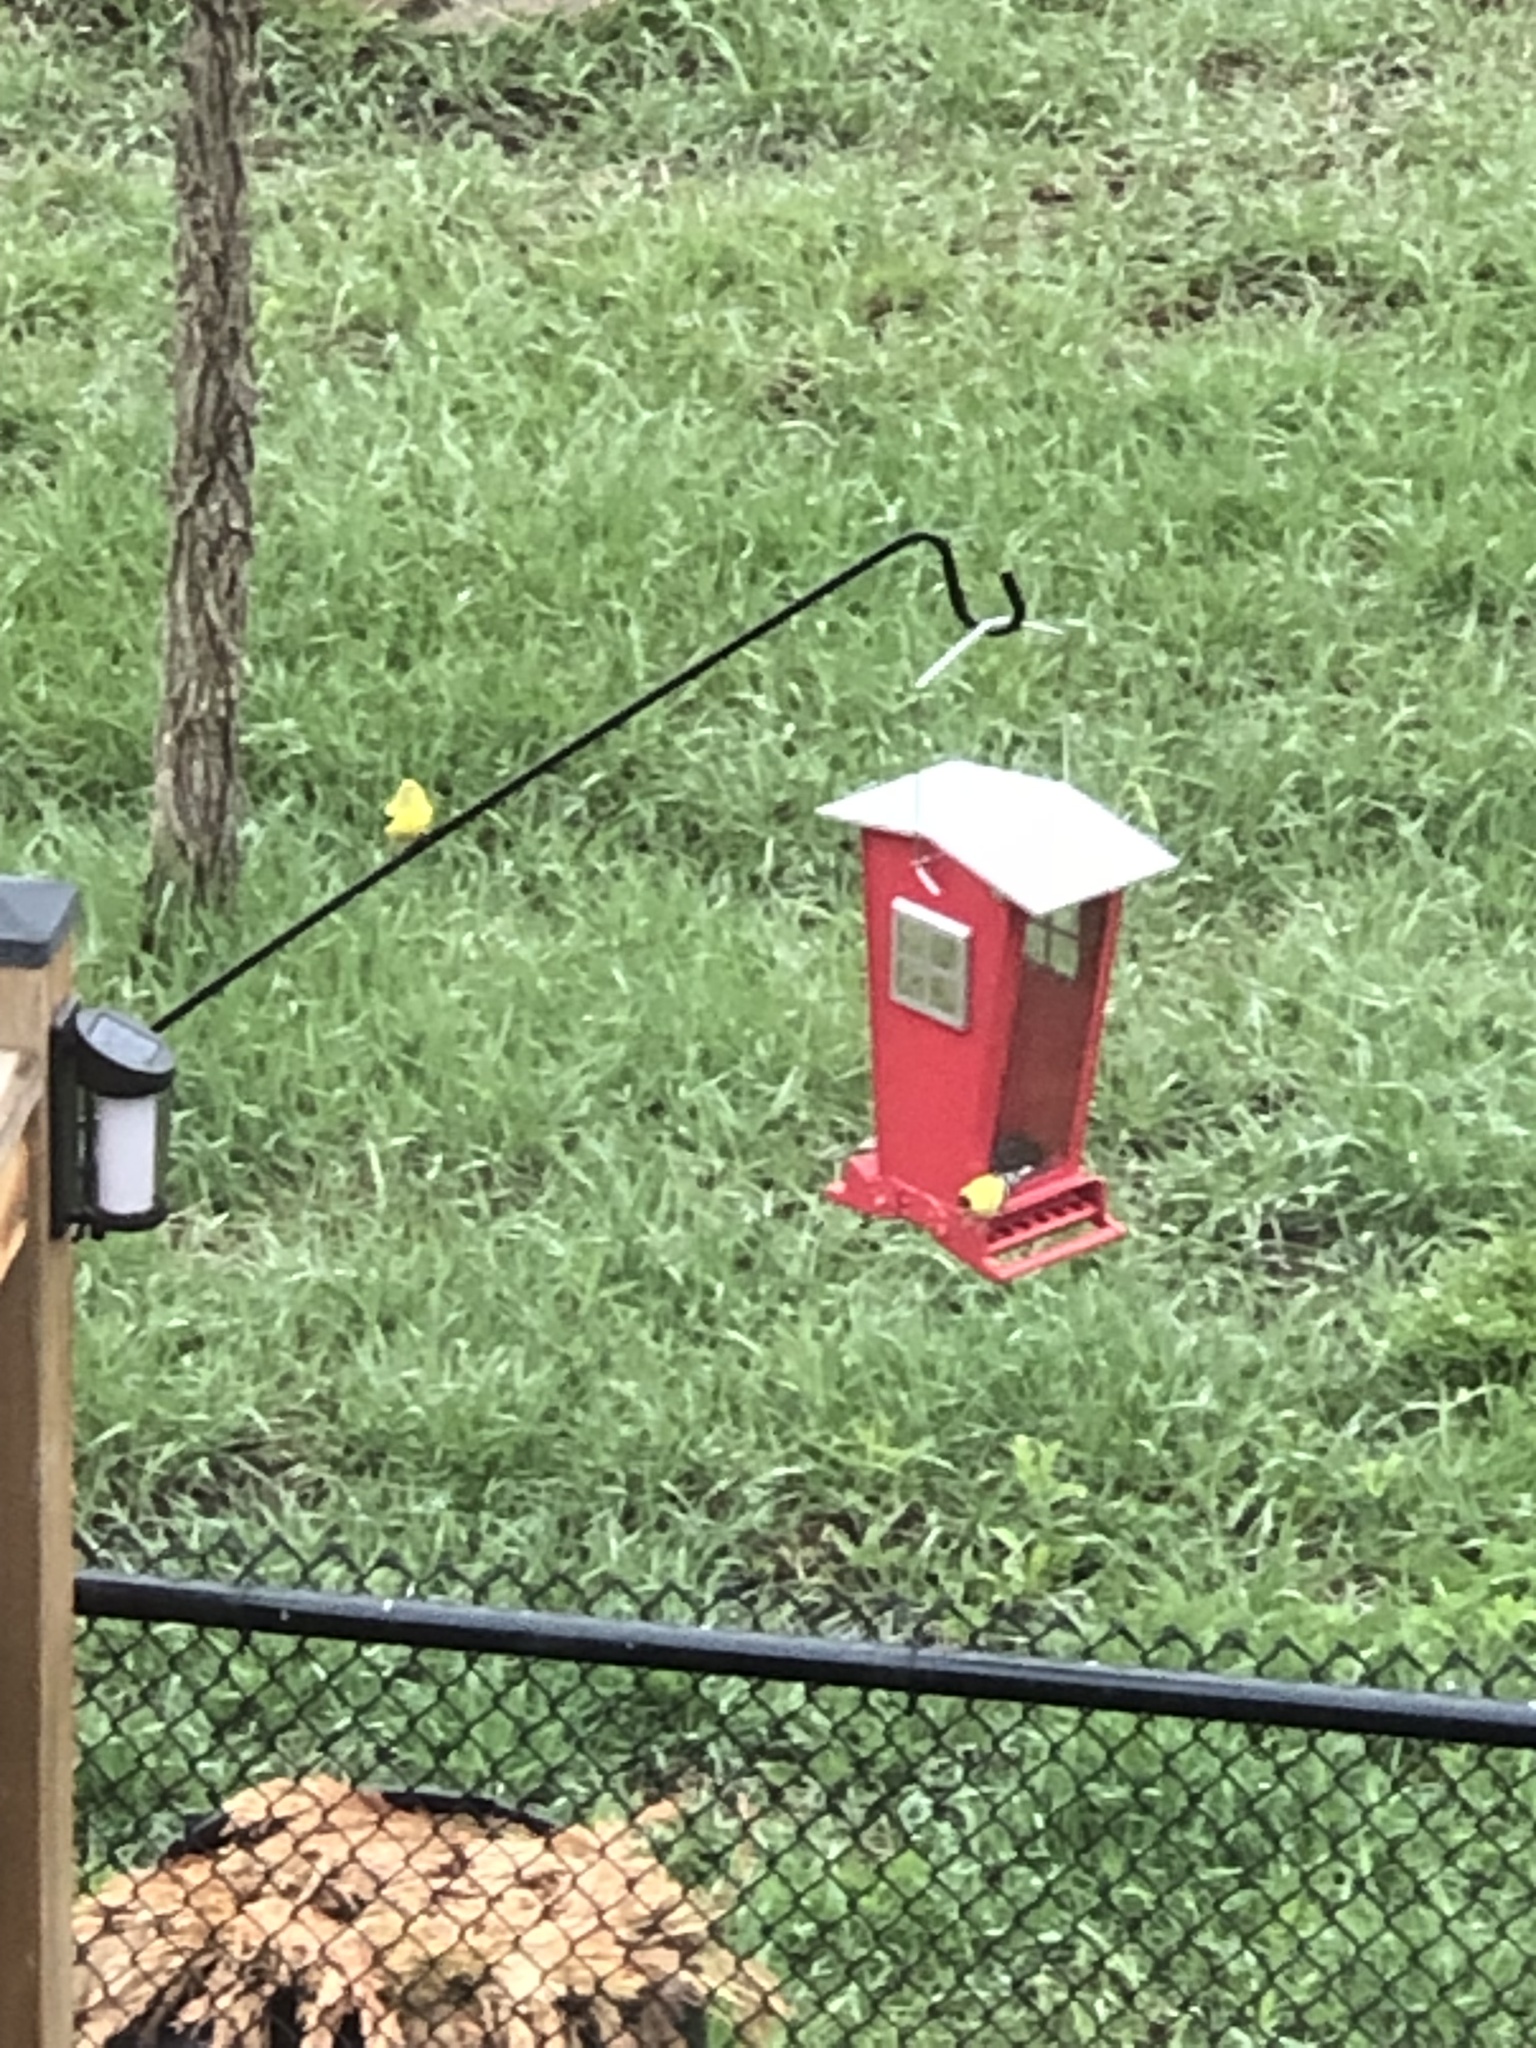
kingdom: Animalia
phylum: Chordata
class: Aves
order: Passeriformes
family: Fringillidae
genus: Spinus
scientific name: Spinus tristis
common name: American goldfinch
